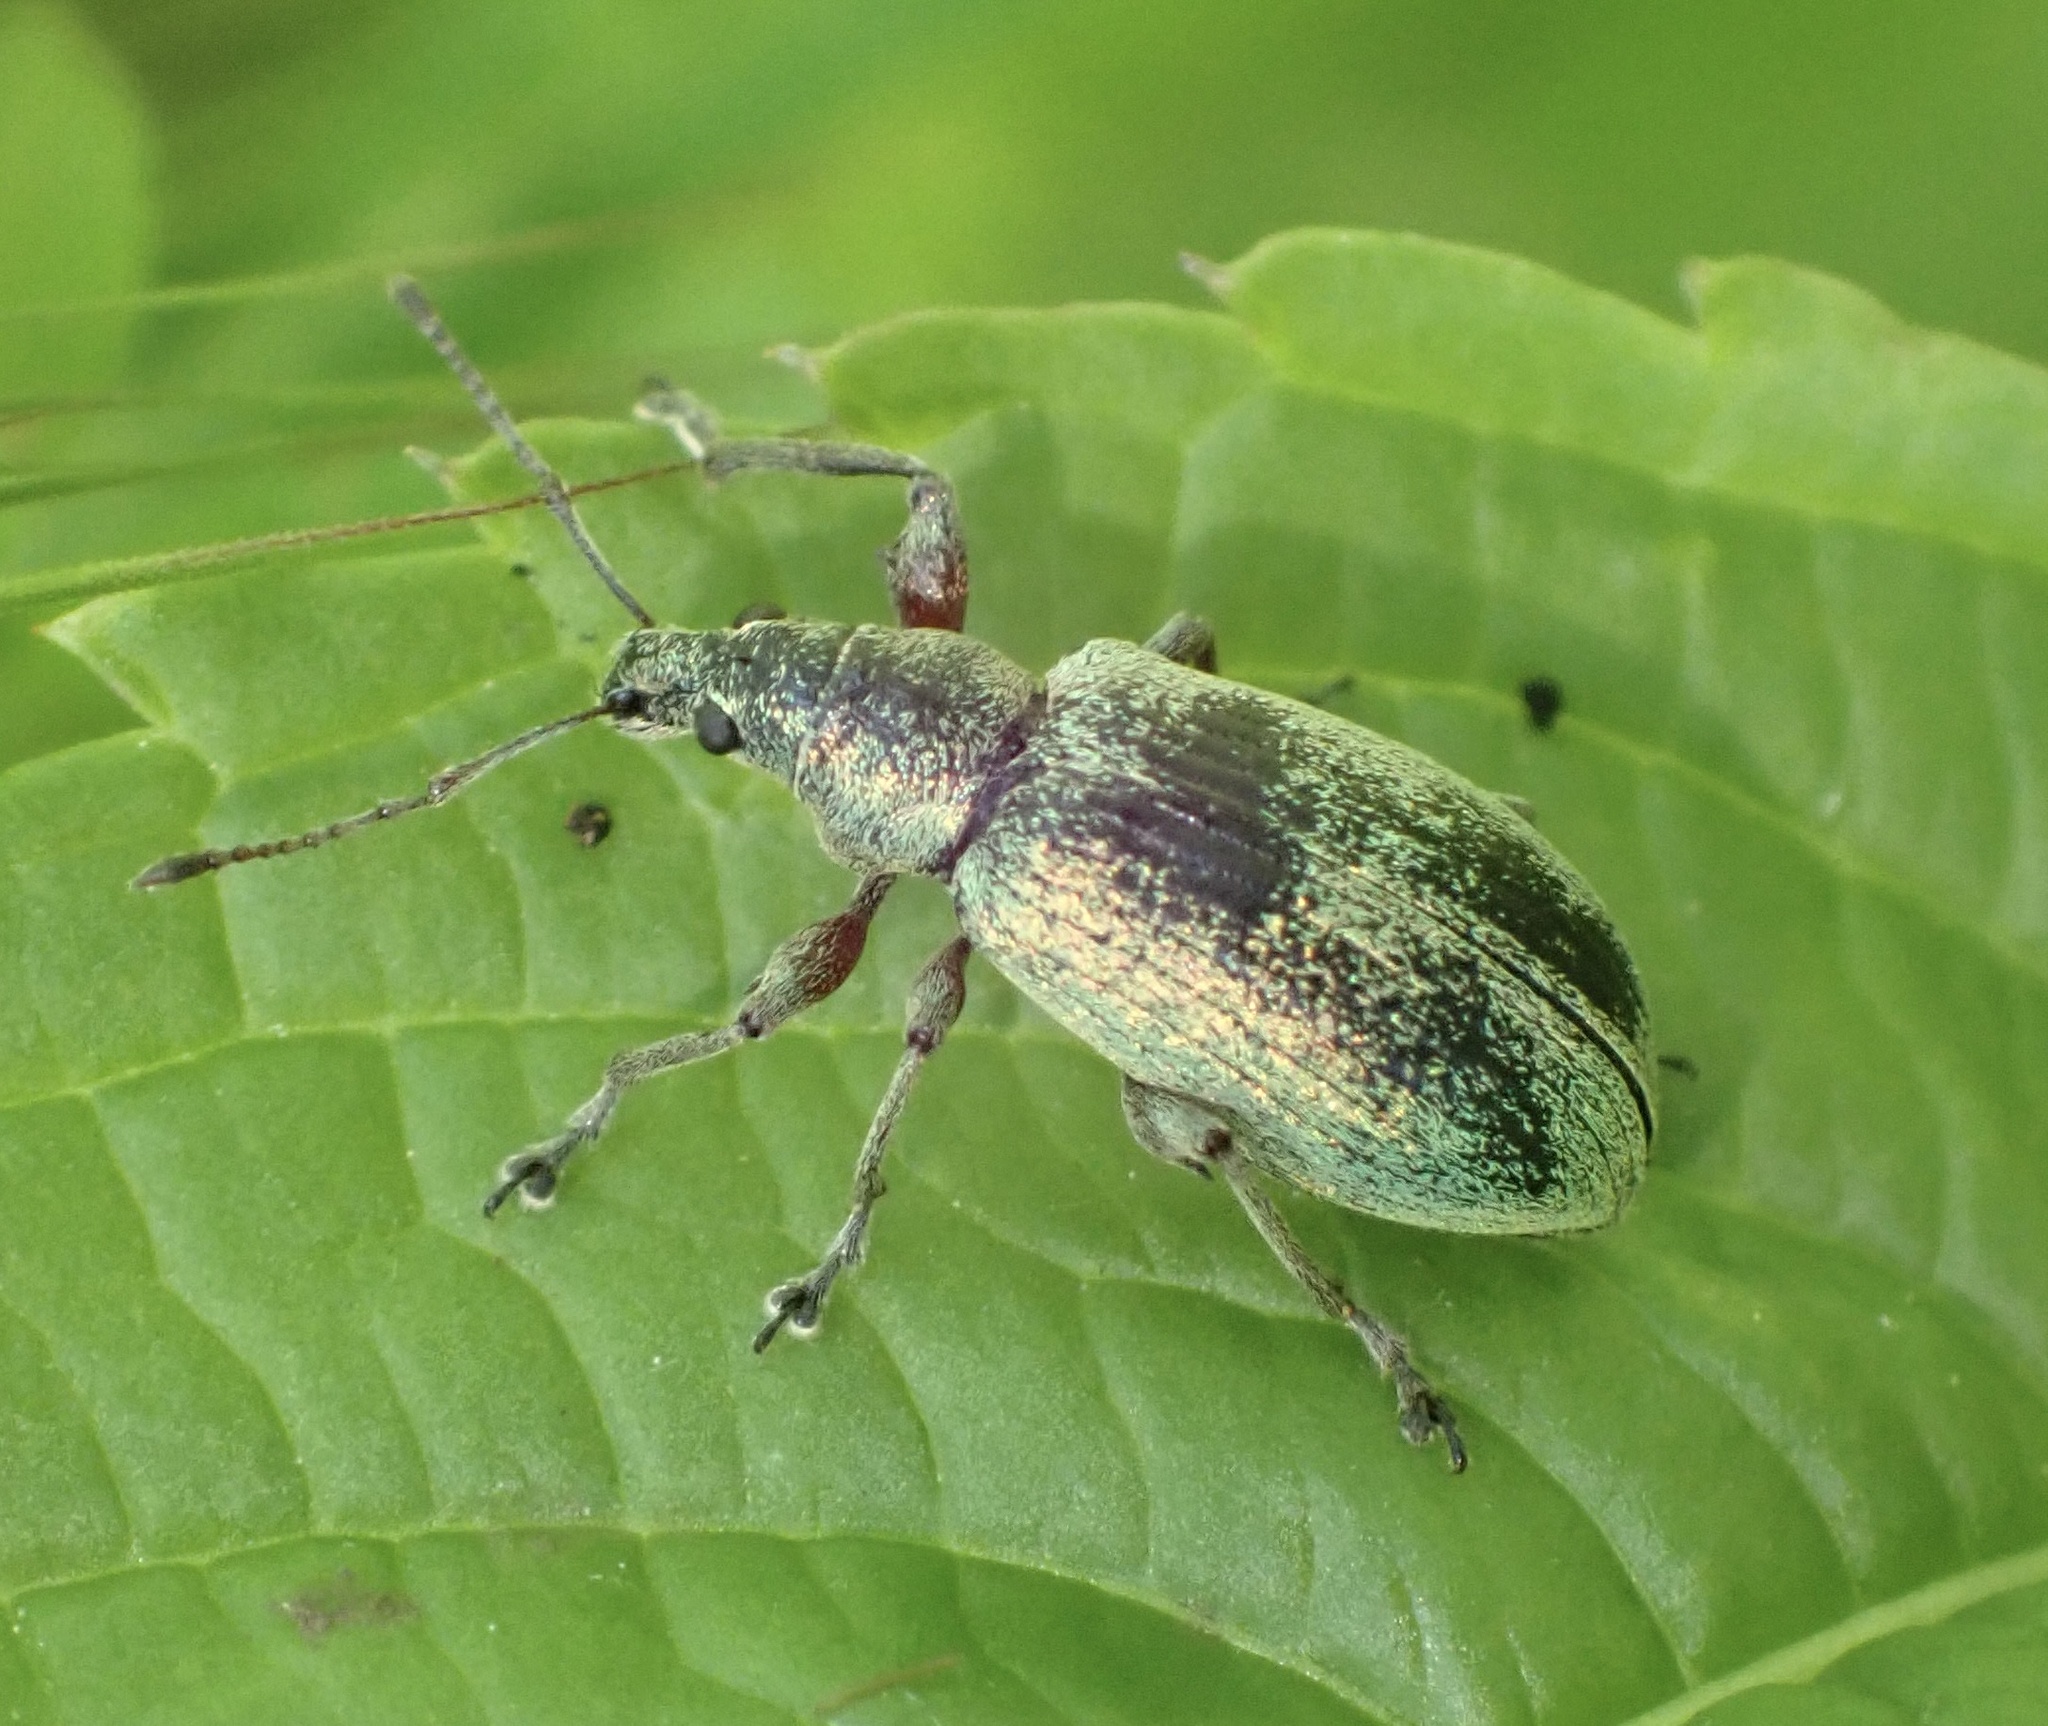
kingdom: Animalia
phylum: Arthropoda
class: Insecta
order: Coleoptera
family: Curculionidae
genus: Phyllobius
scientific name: Phyllobius pomaceus
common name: Green nettle weevil
